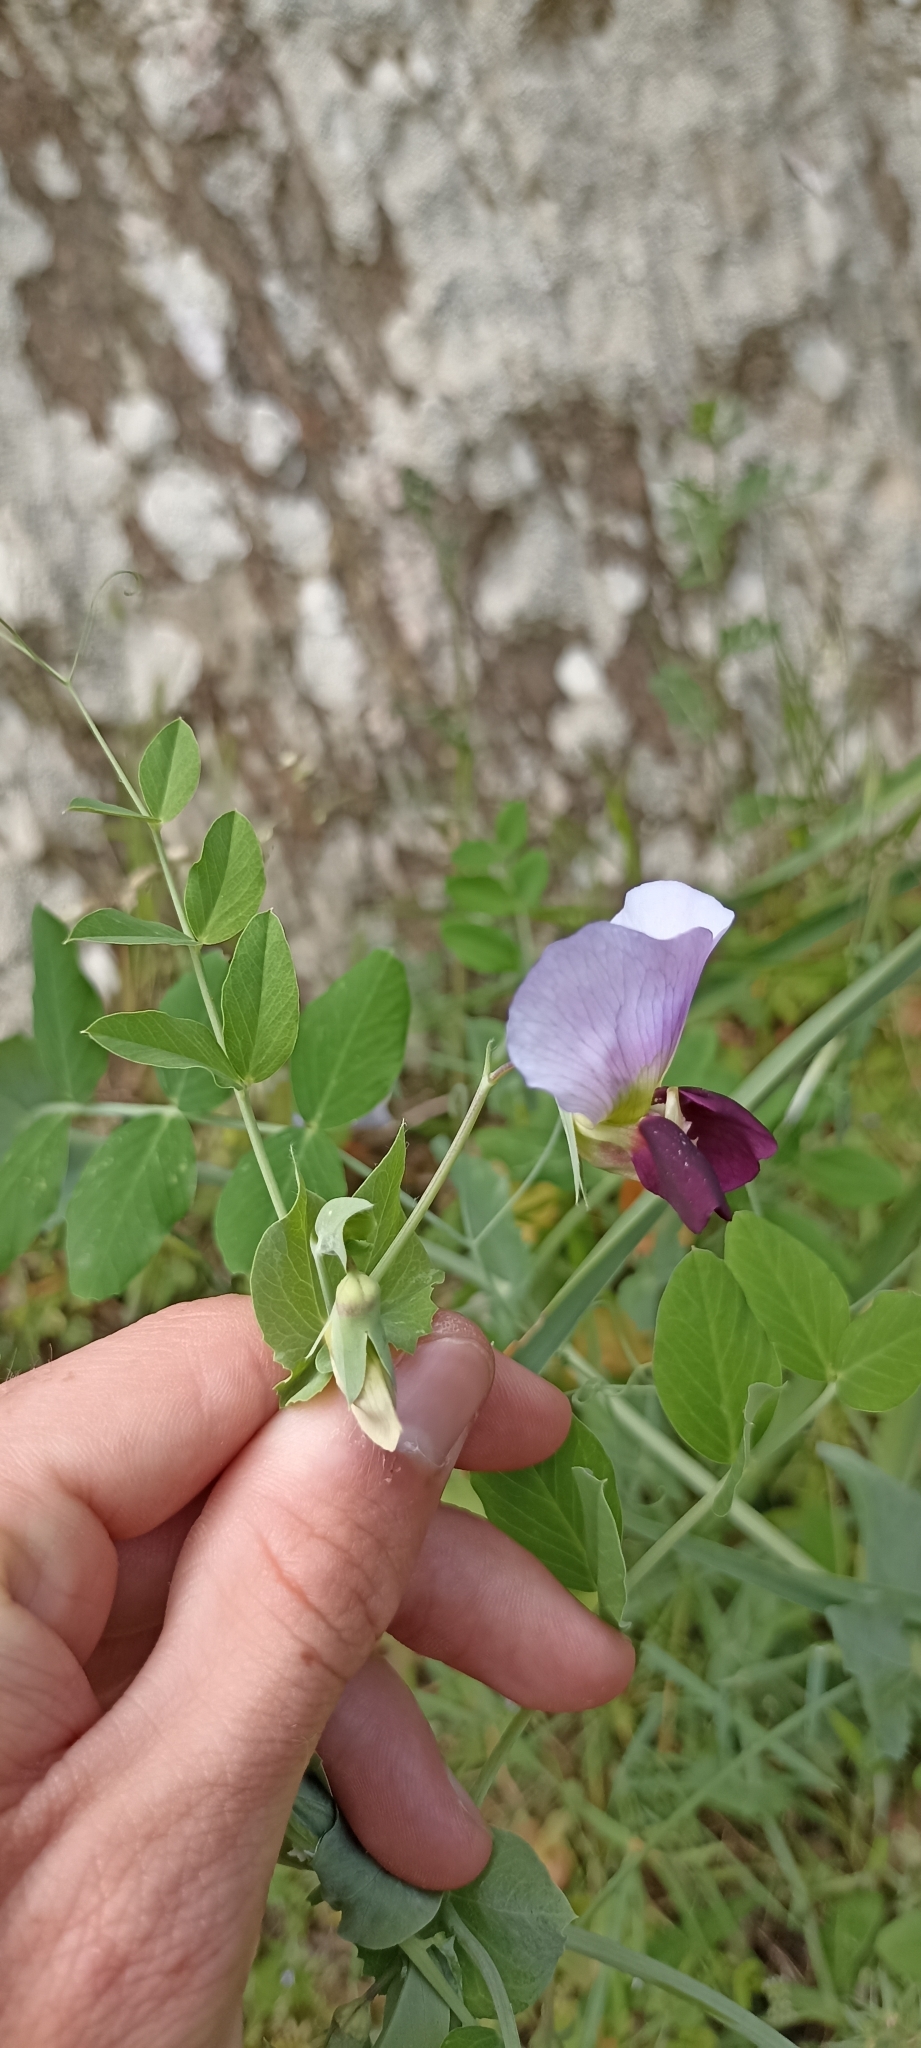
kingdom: Plantae
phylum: Tracheophyta
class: Magnoliopsida
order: Fabales
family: Fabaceae
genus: Lathyrus
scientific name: Lathyrus oleraceus
